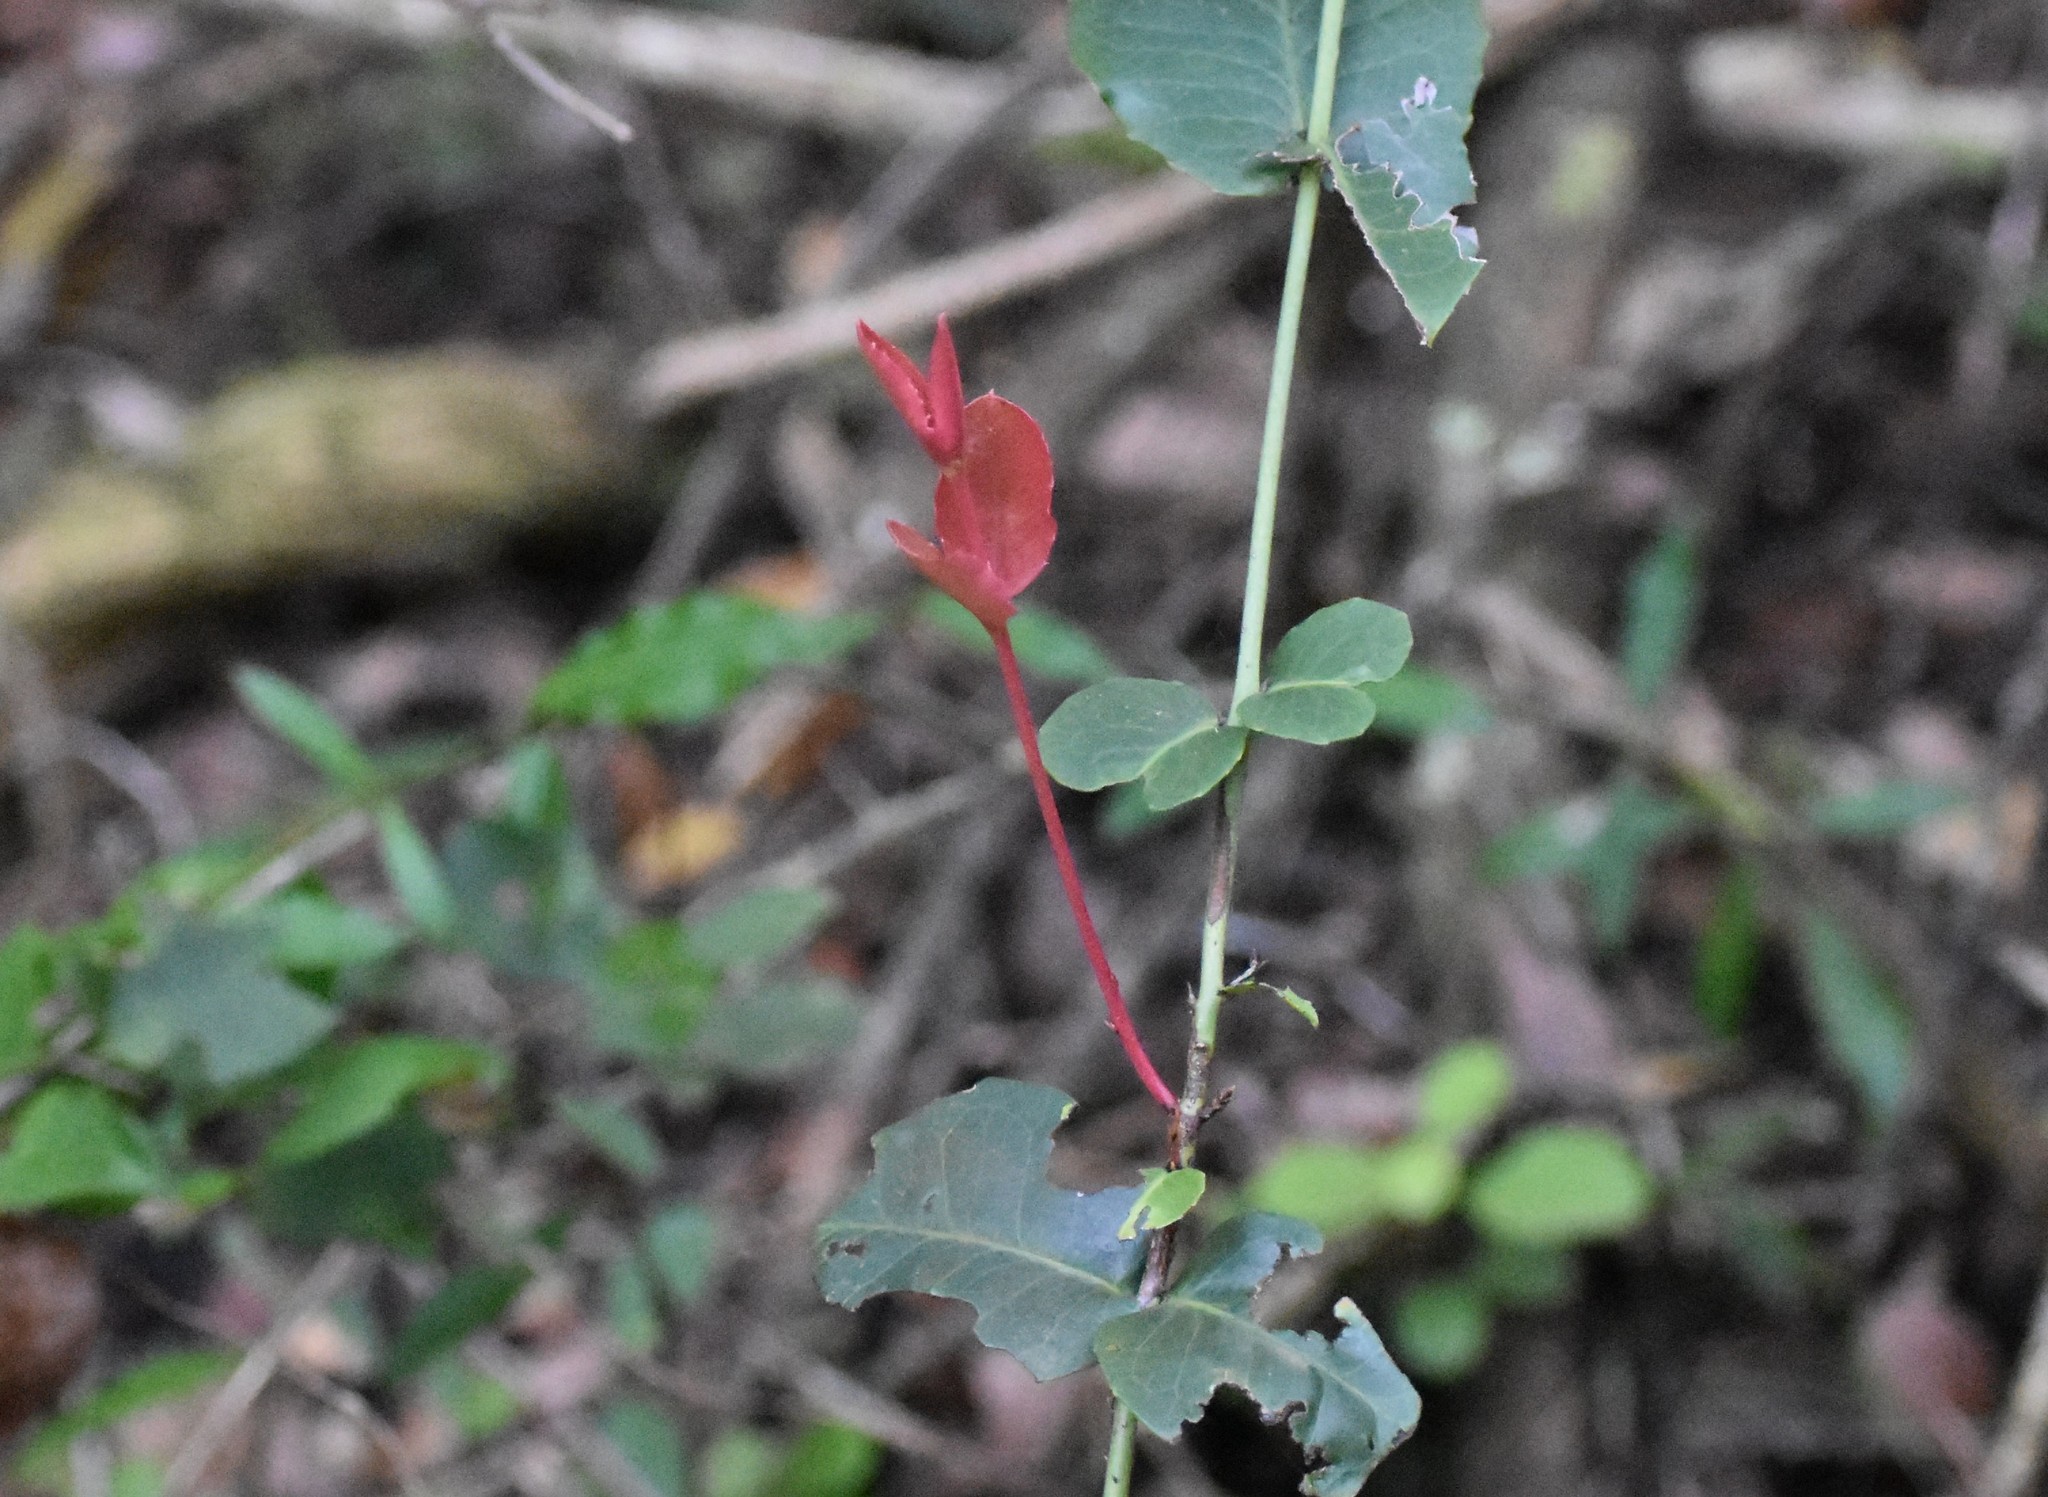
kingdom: Plantae
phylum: Tracheophyta
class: Magnoliopsida
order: Celastrales
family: Celastraceae
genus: Lauridia
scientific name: Lauridia tetragona
